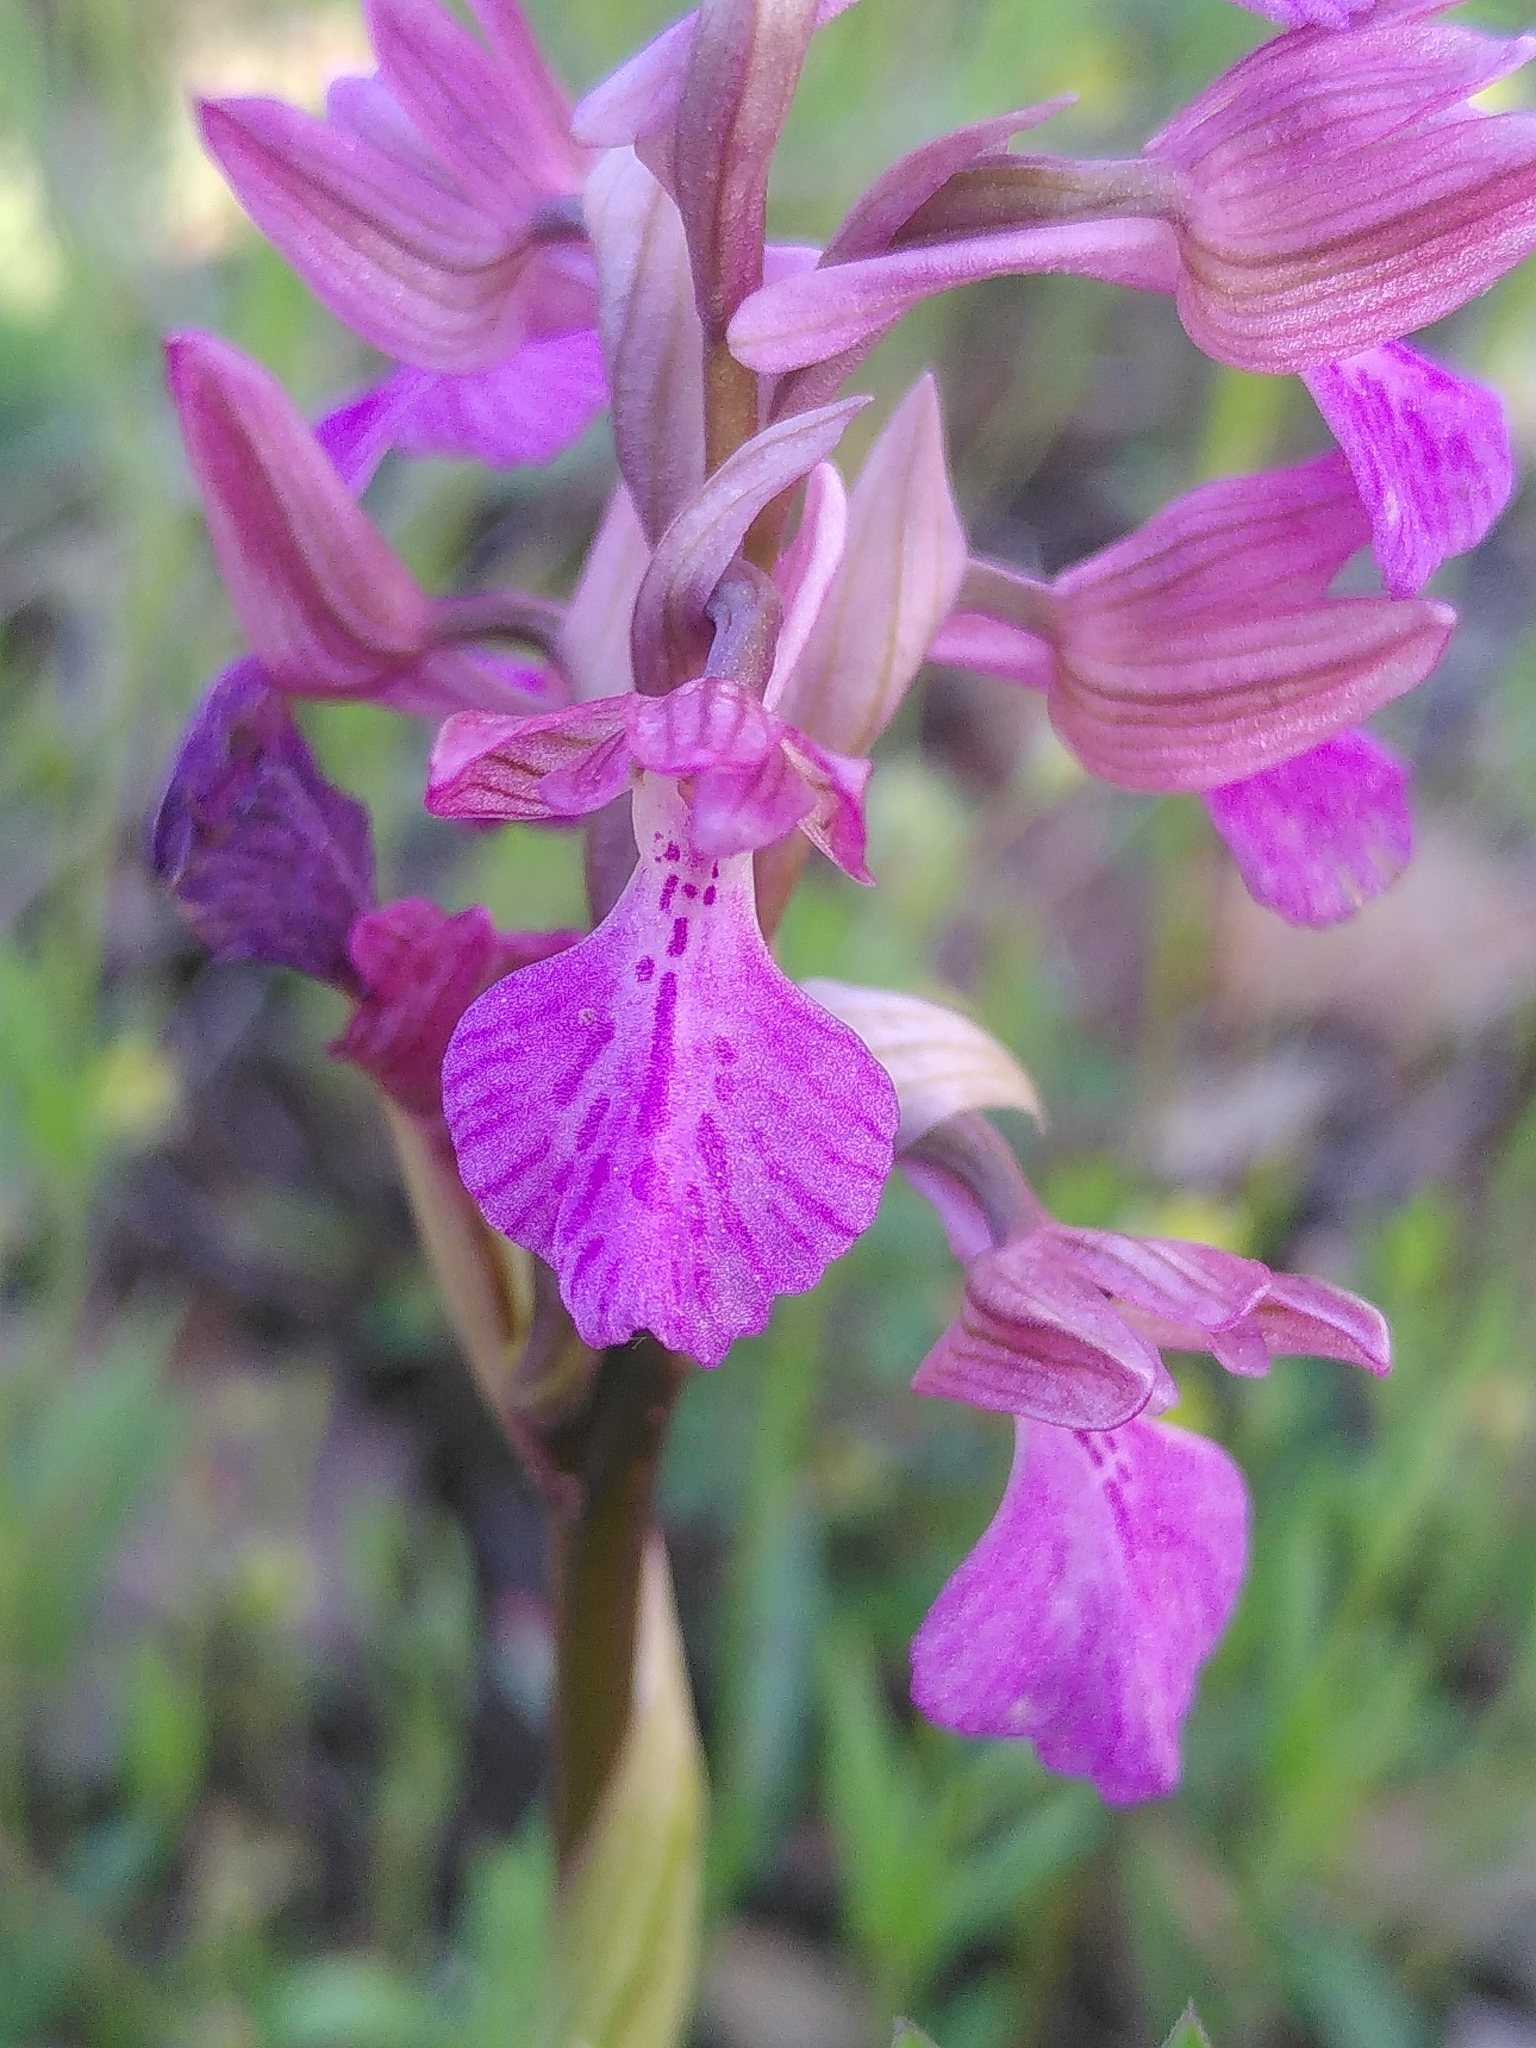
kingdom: Plantae
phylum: Tracheophyta
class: Liliopsida
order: Asparagales
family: Orchidaceae
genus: Anacamptis
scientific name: Anacamptis gennarii
